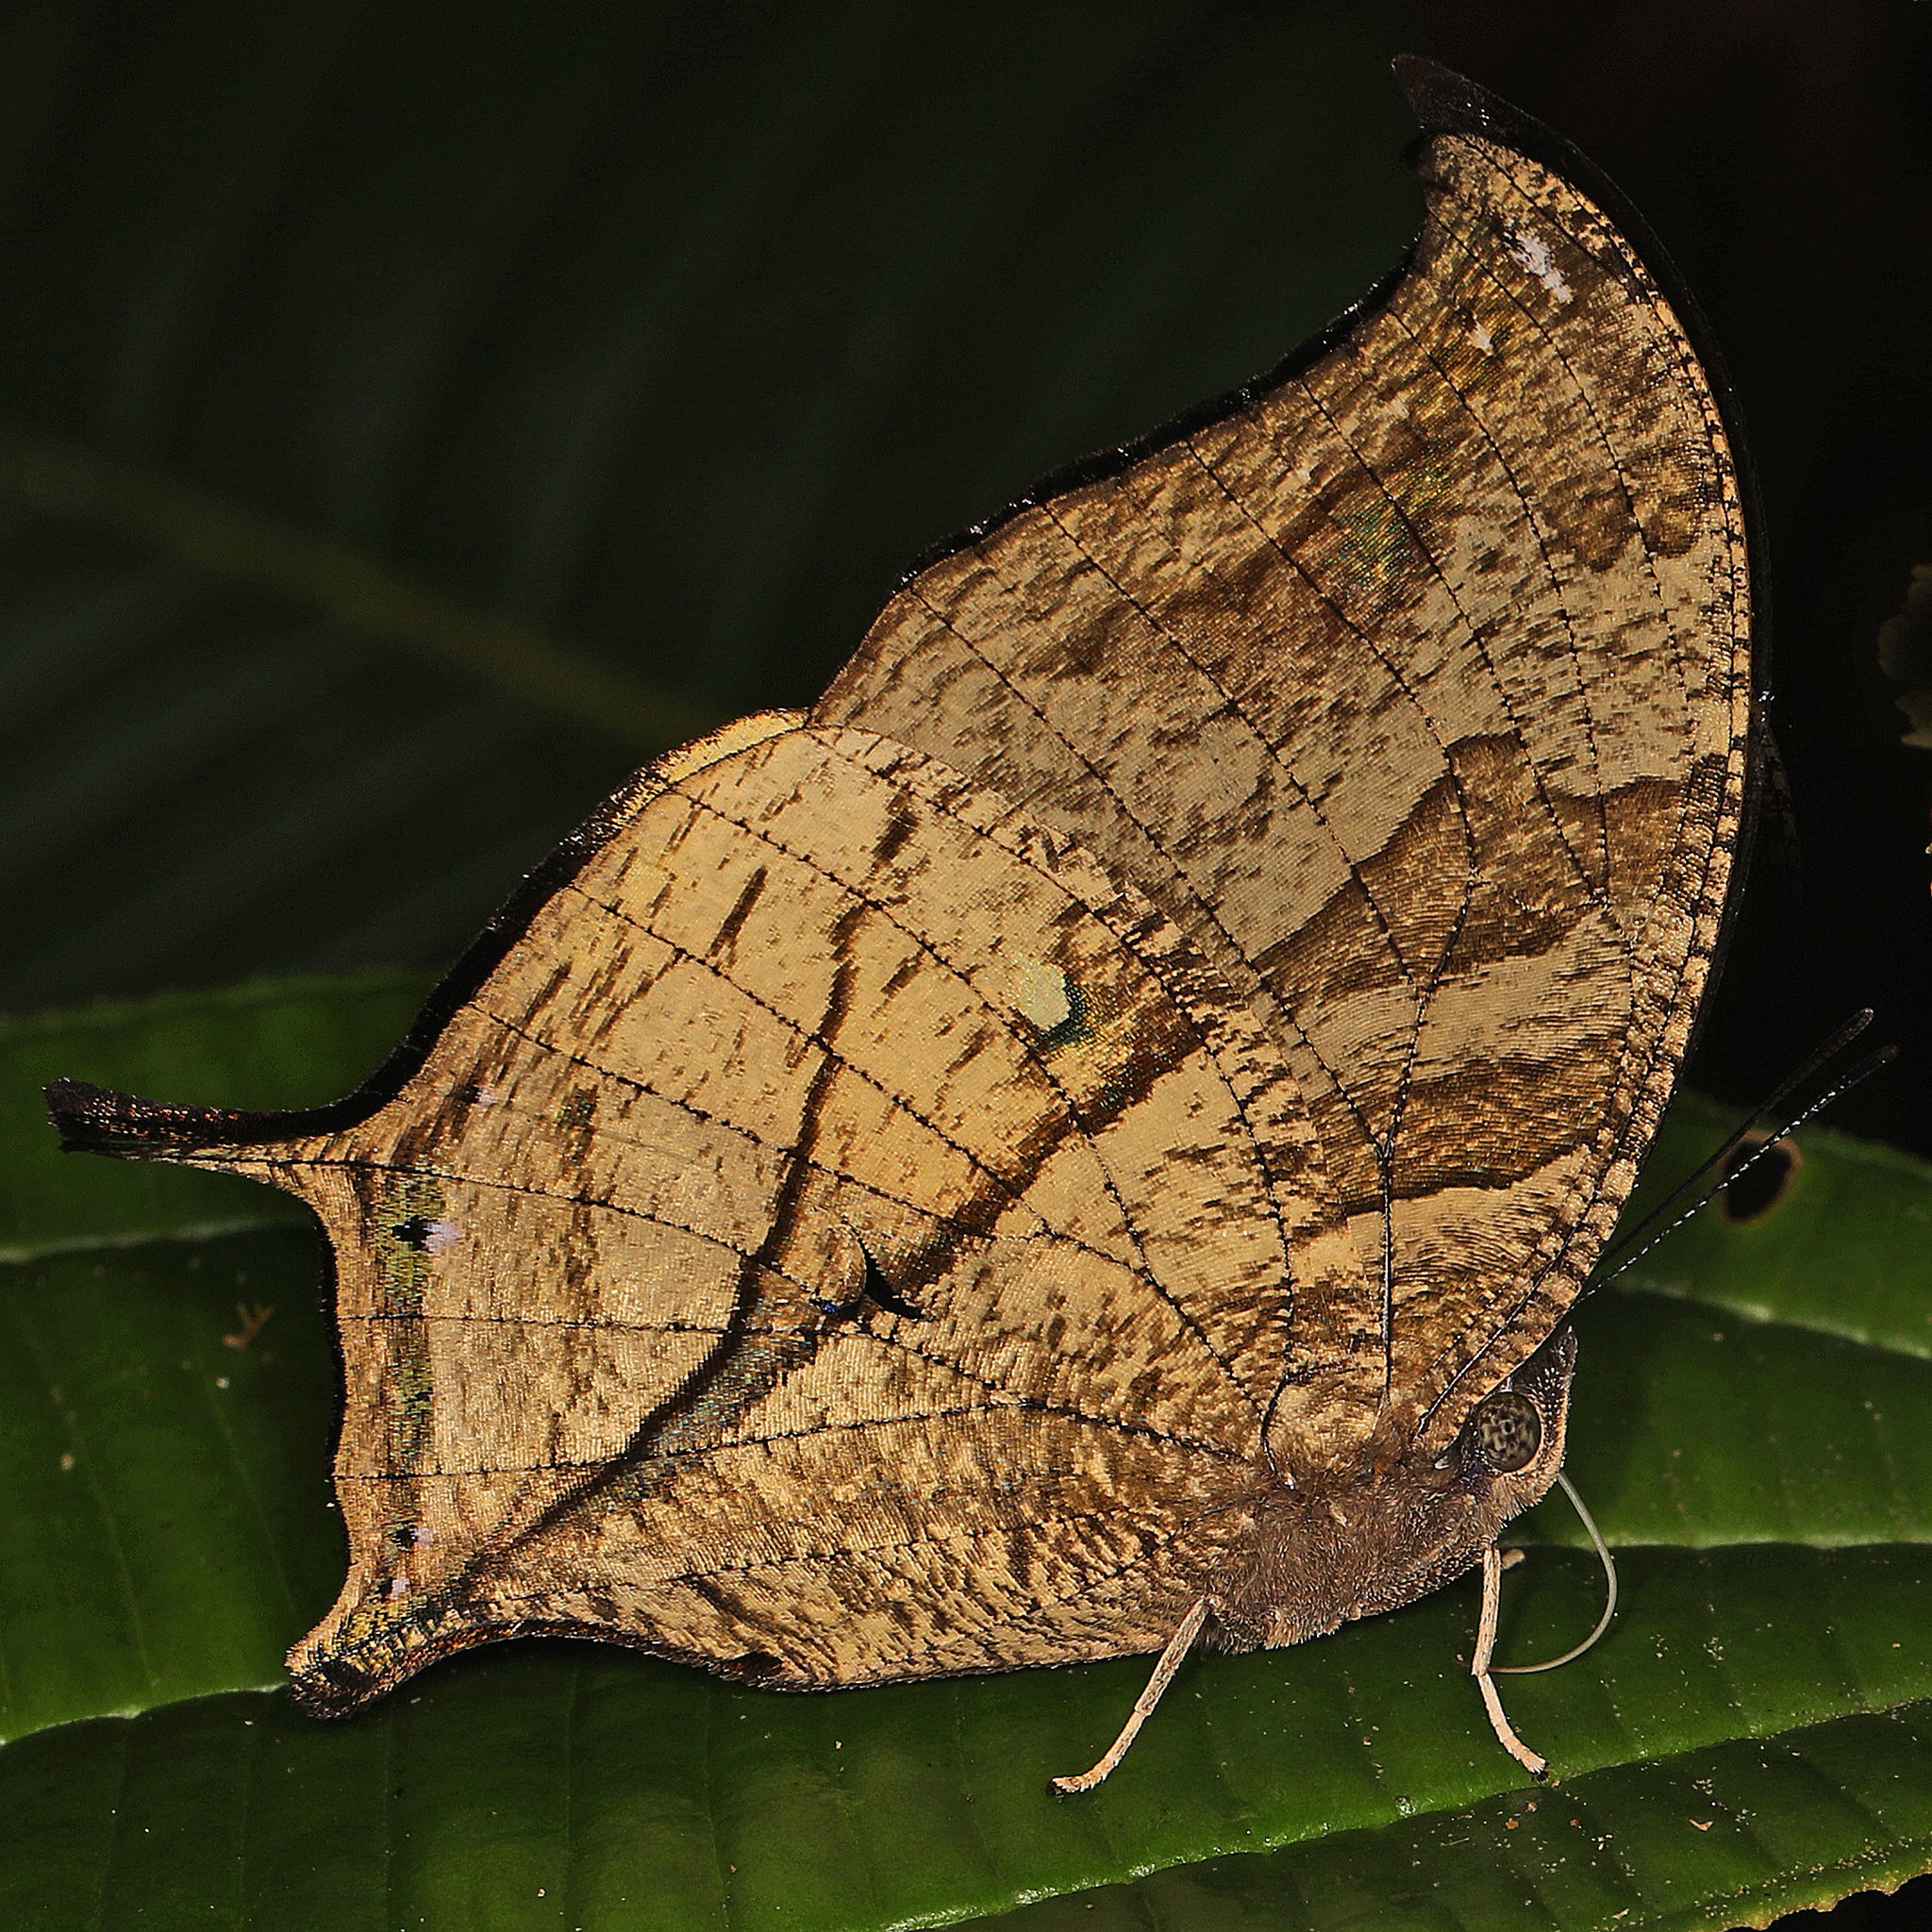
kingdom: Animalia
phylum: Arthropoda
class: Insecta
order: Lepidoptera
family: Nymphalidae
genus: Consul
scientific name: Consul panariste
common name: Tricolored leafwing
